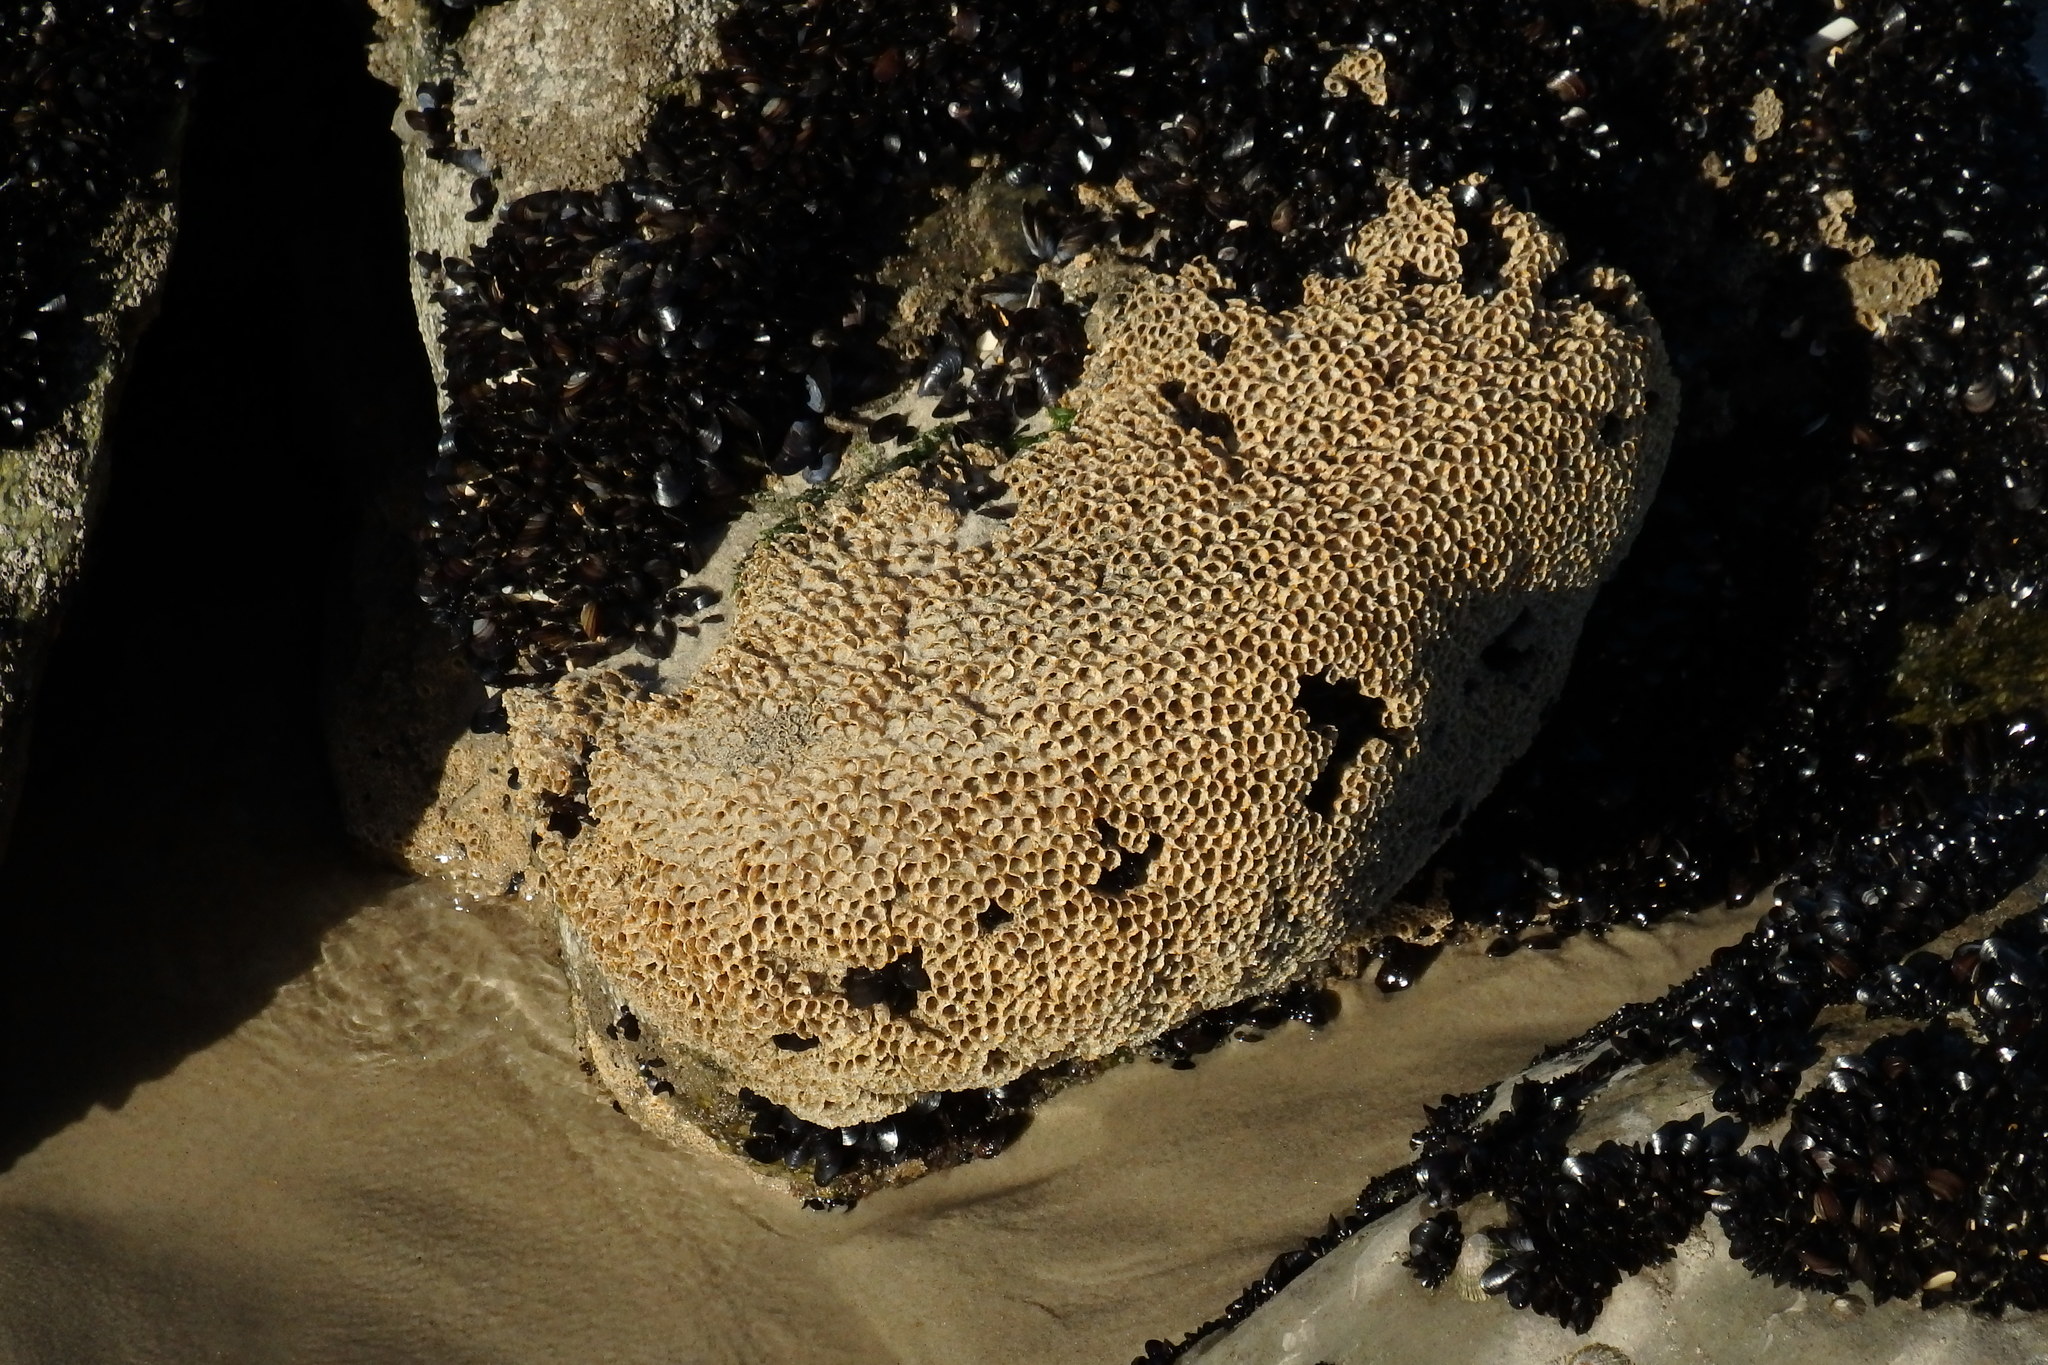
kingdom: Animalia
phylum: Annelida
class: Polychaeta
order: Sabellida
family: Sabellariidae
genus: Sabellaria
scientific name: Sabellaria alveolata
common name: Honeycomb worm
